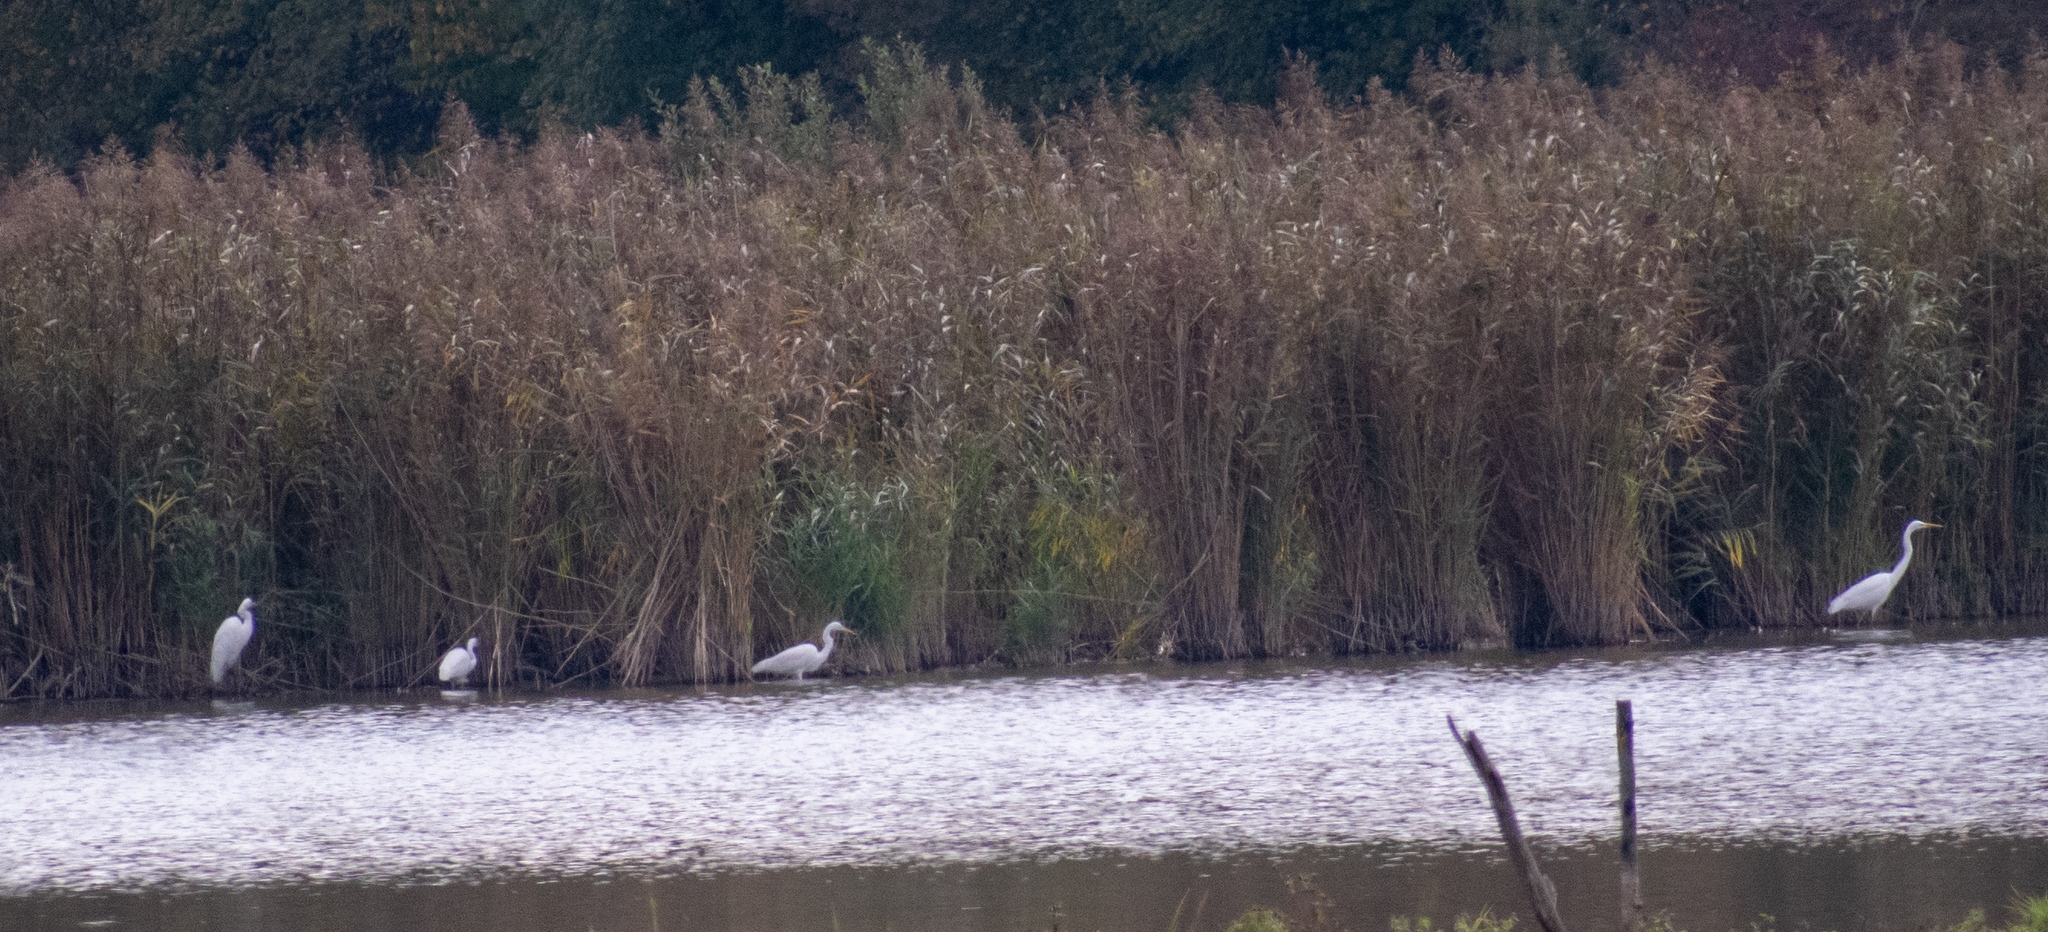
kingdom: Animalia
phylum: Chordata
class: Aves
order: Pelecaniformes
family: Ardeidae
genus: Ardea
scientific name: Ardea alba
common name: Great egret
